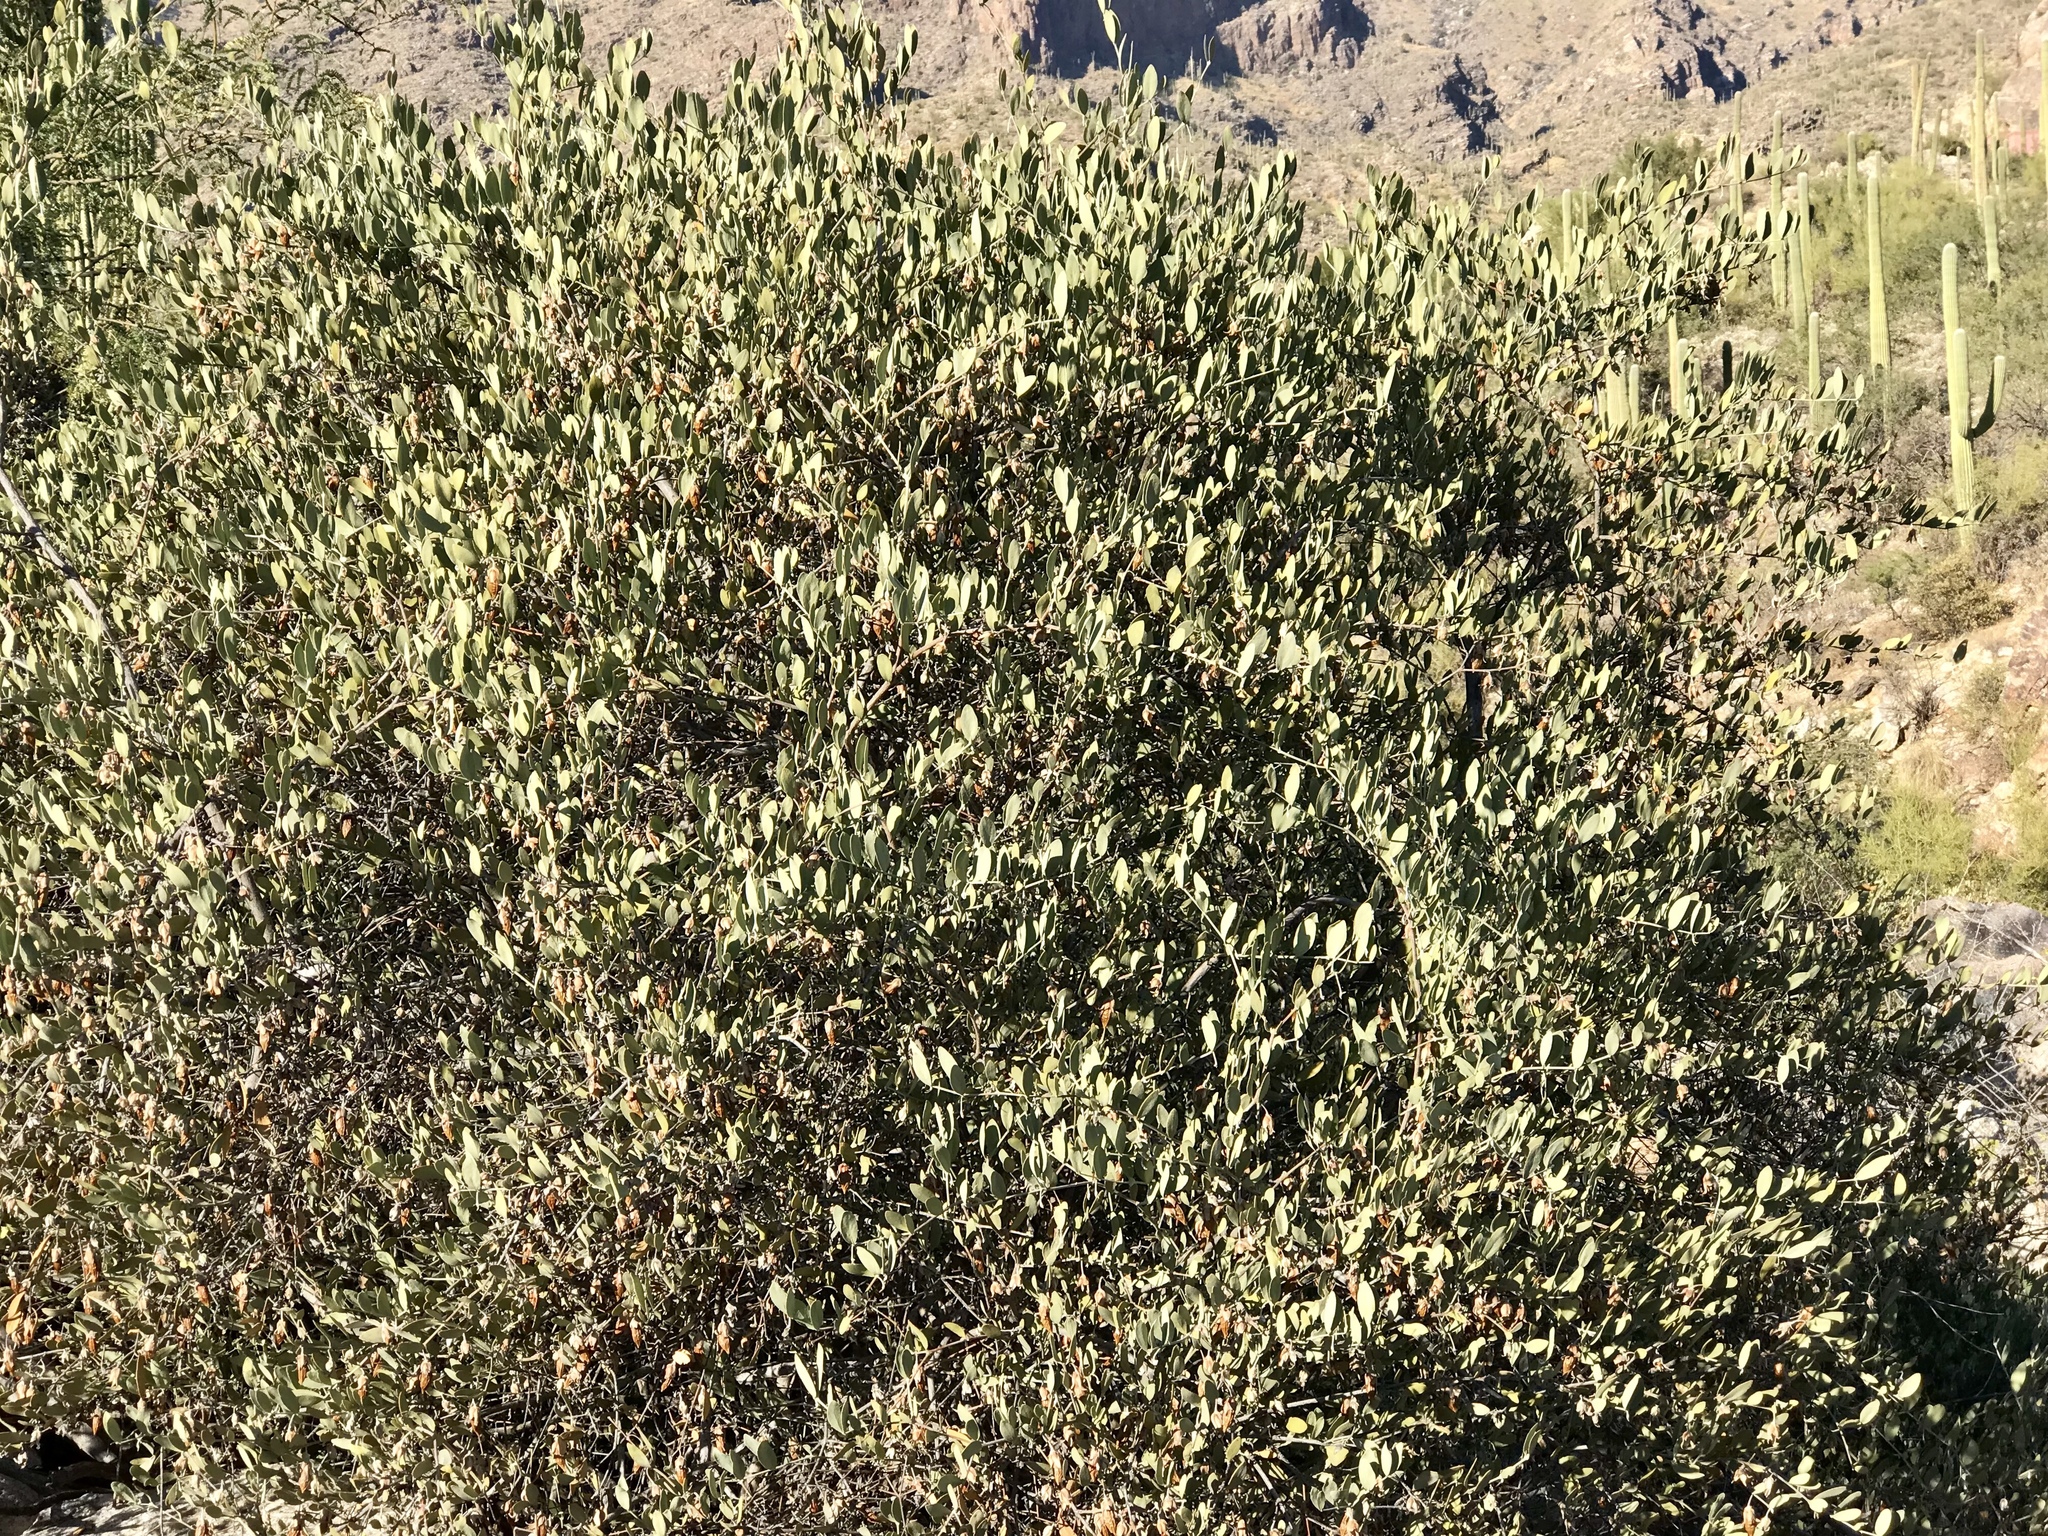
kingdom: Plantae
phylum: Tracheophyta
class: Magnoliopsida
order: Caryophyllales
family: Simmondsiaceae
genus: Simmondsia
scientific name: Simmondsia chinensis
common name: Jojoba
